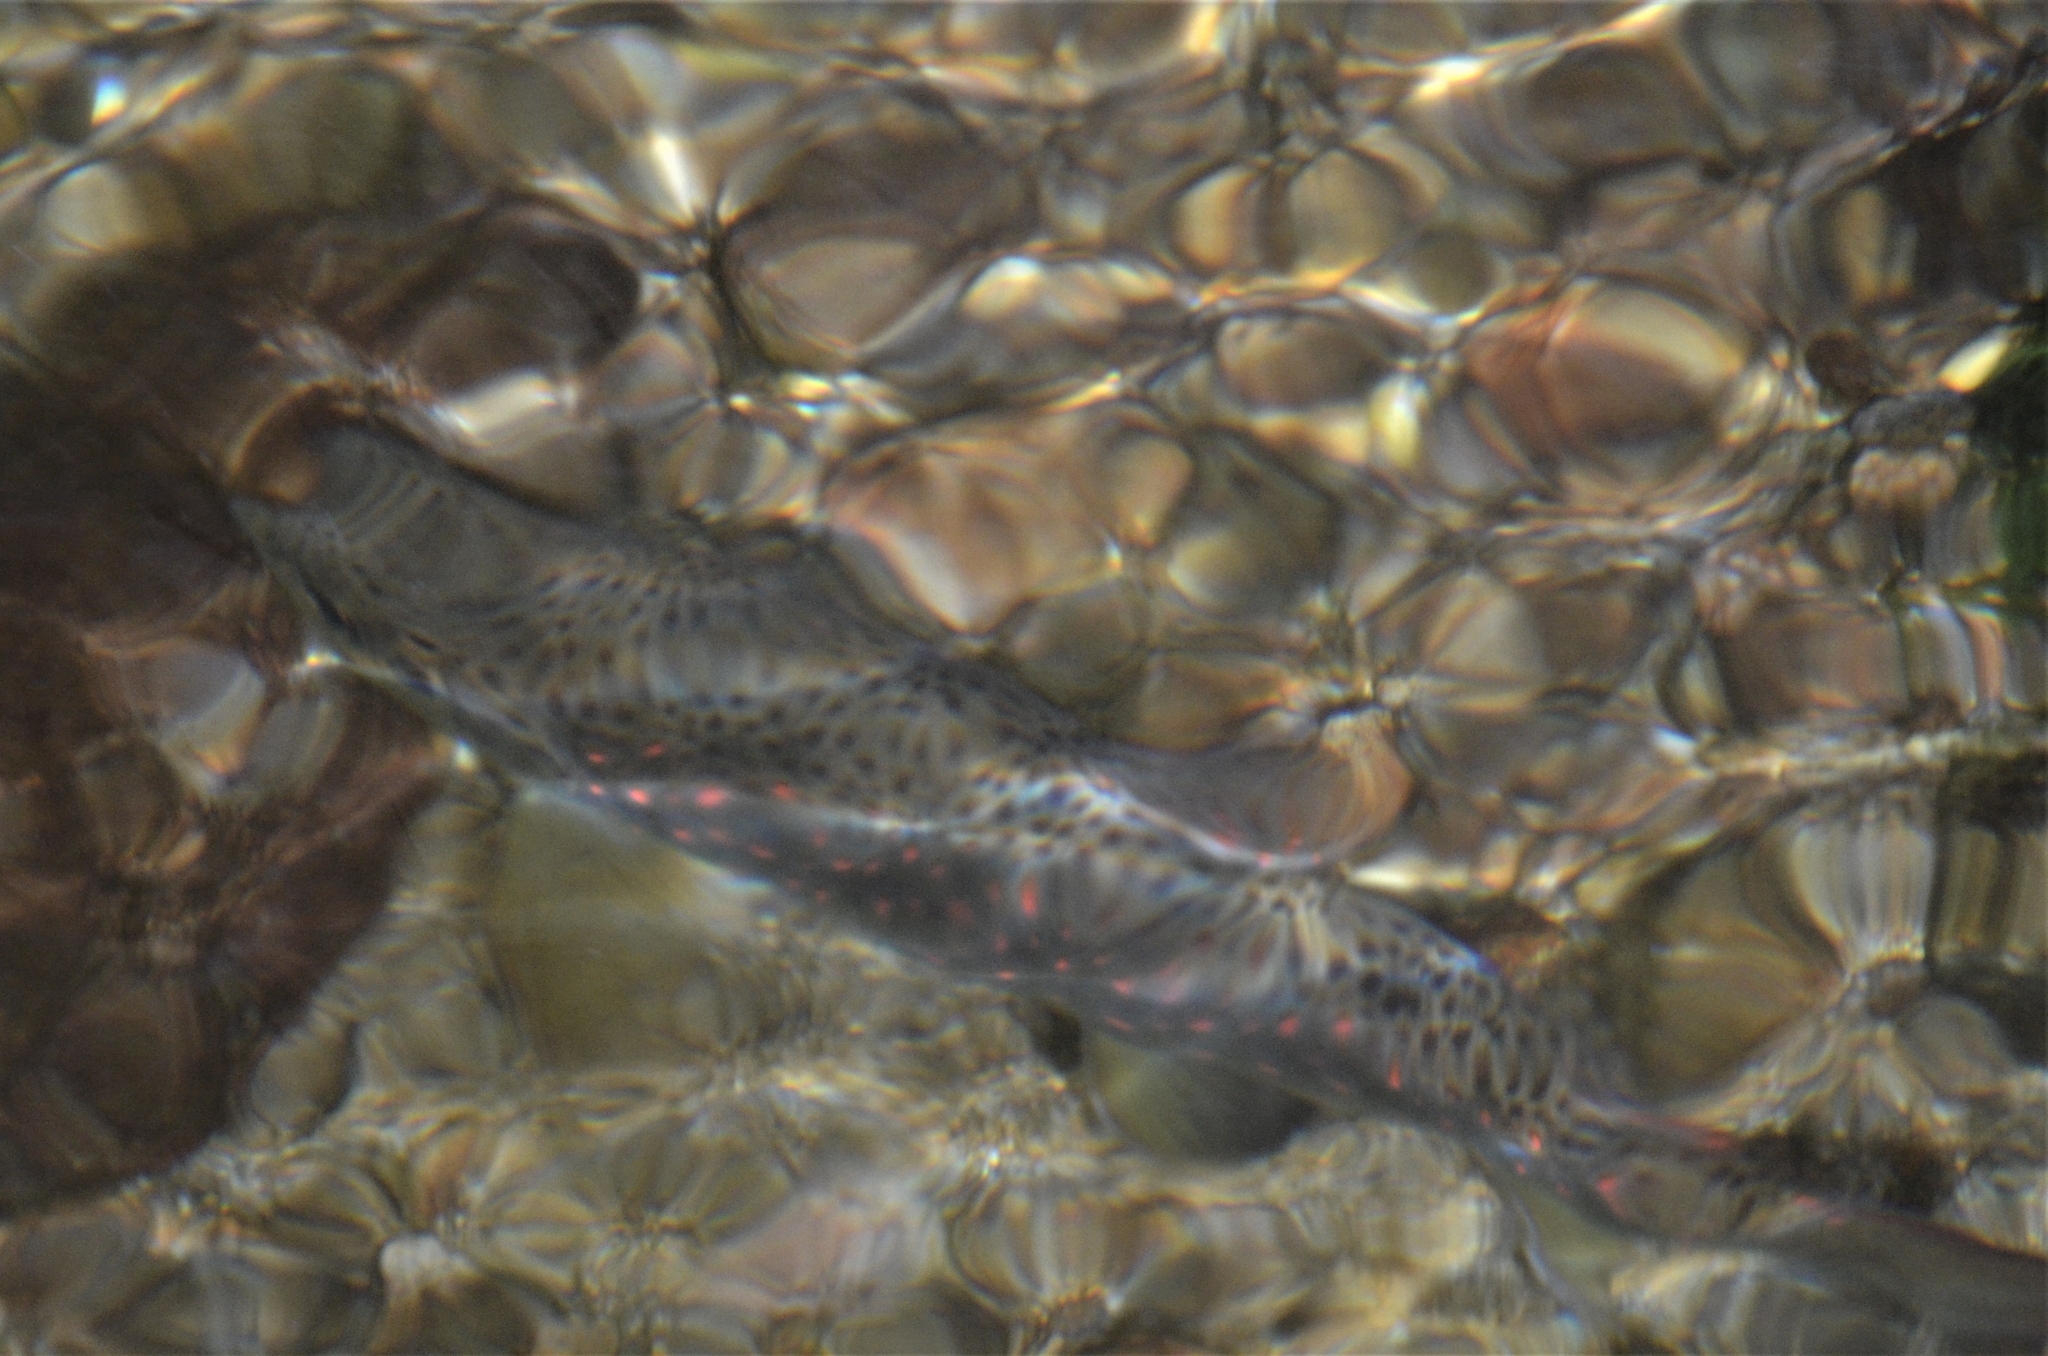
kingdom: Animalia
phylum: Chordata
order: Salmoniformes
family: Salmonidae
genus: Salmo
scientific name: Salmo trutta
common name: Brown trout
